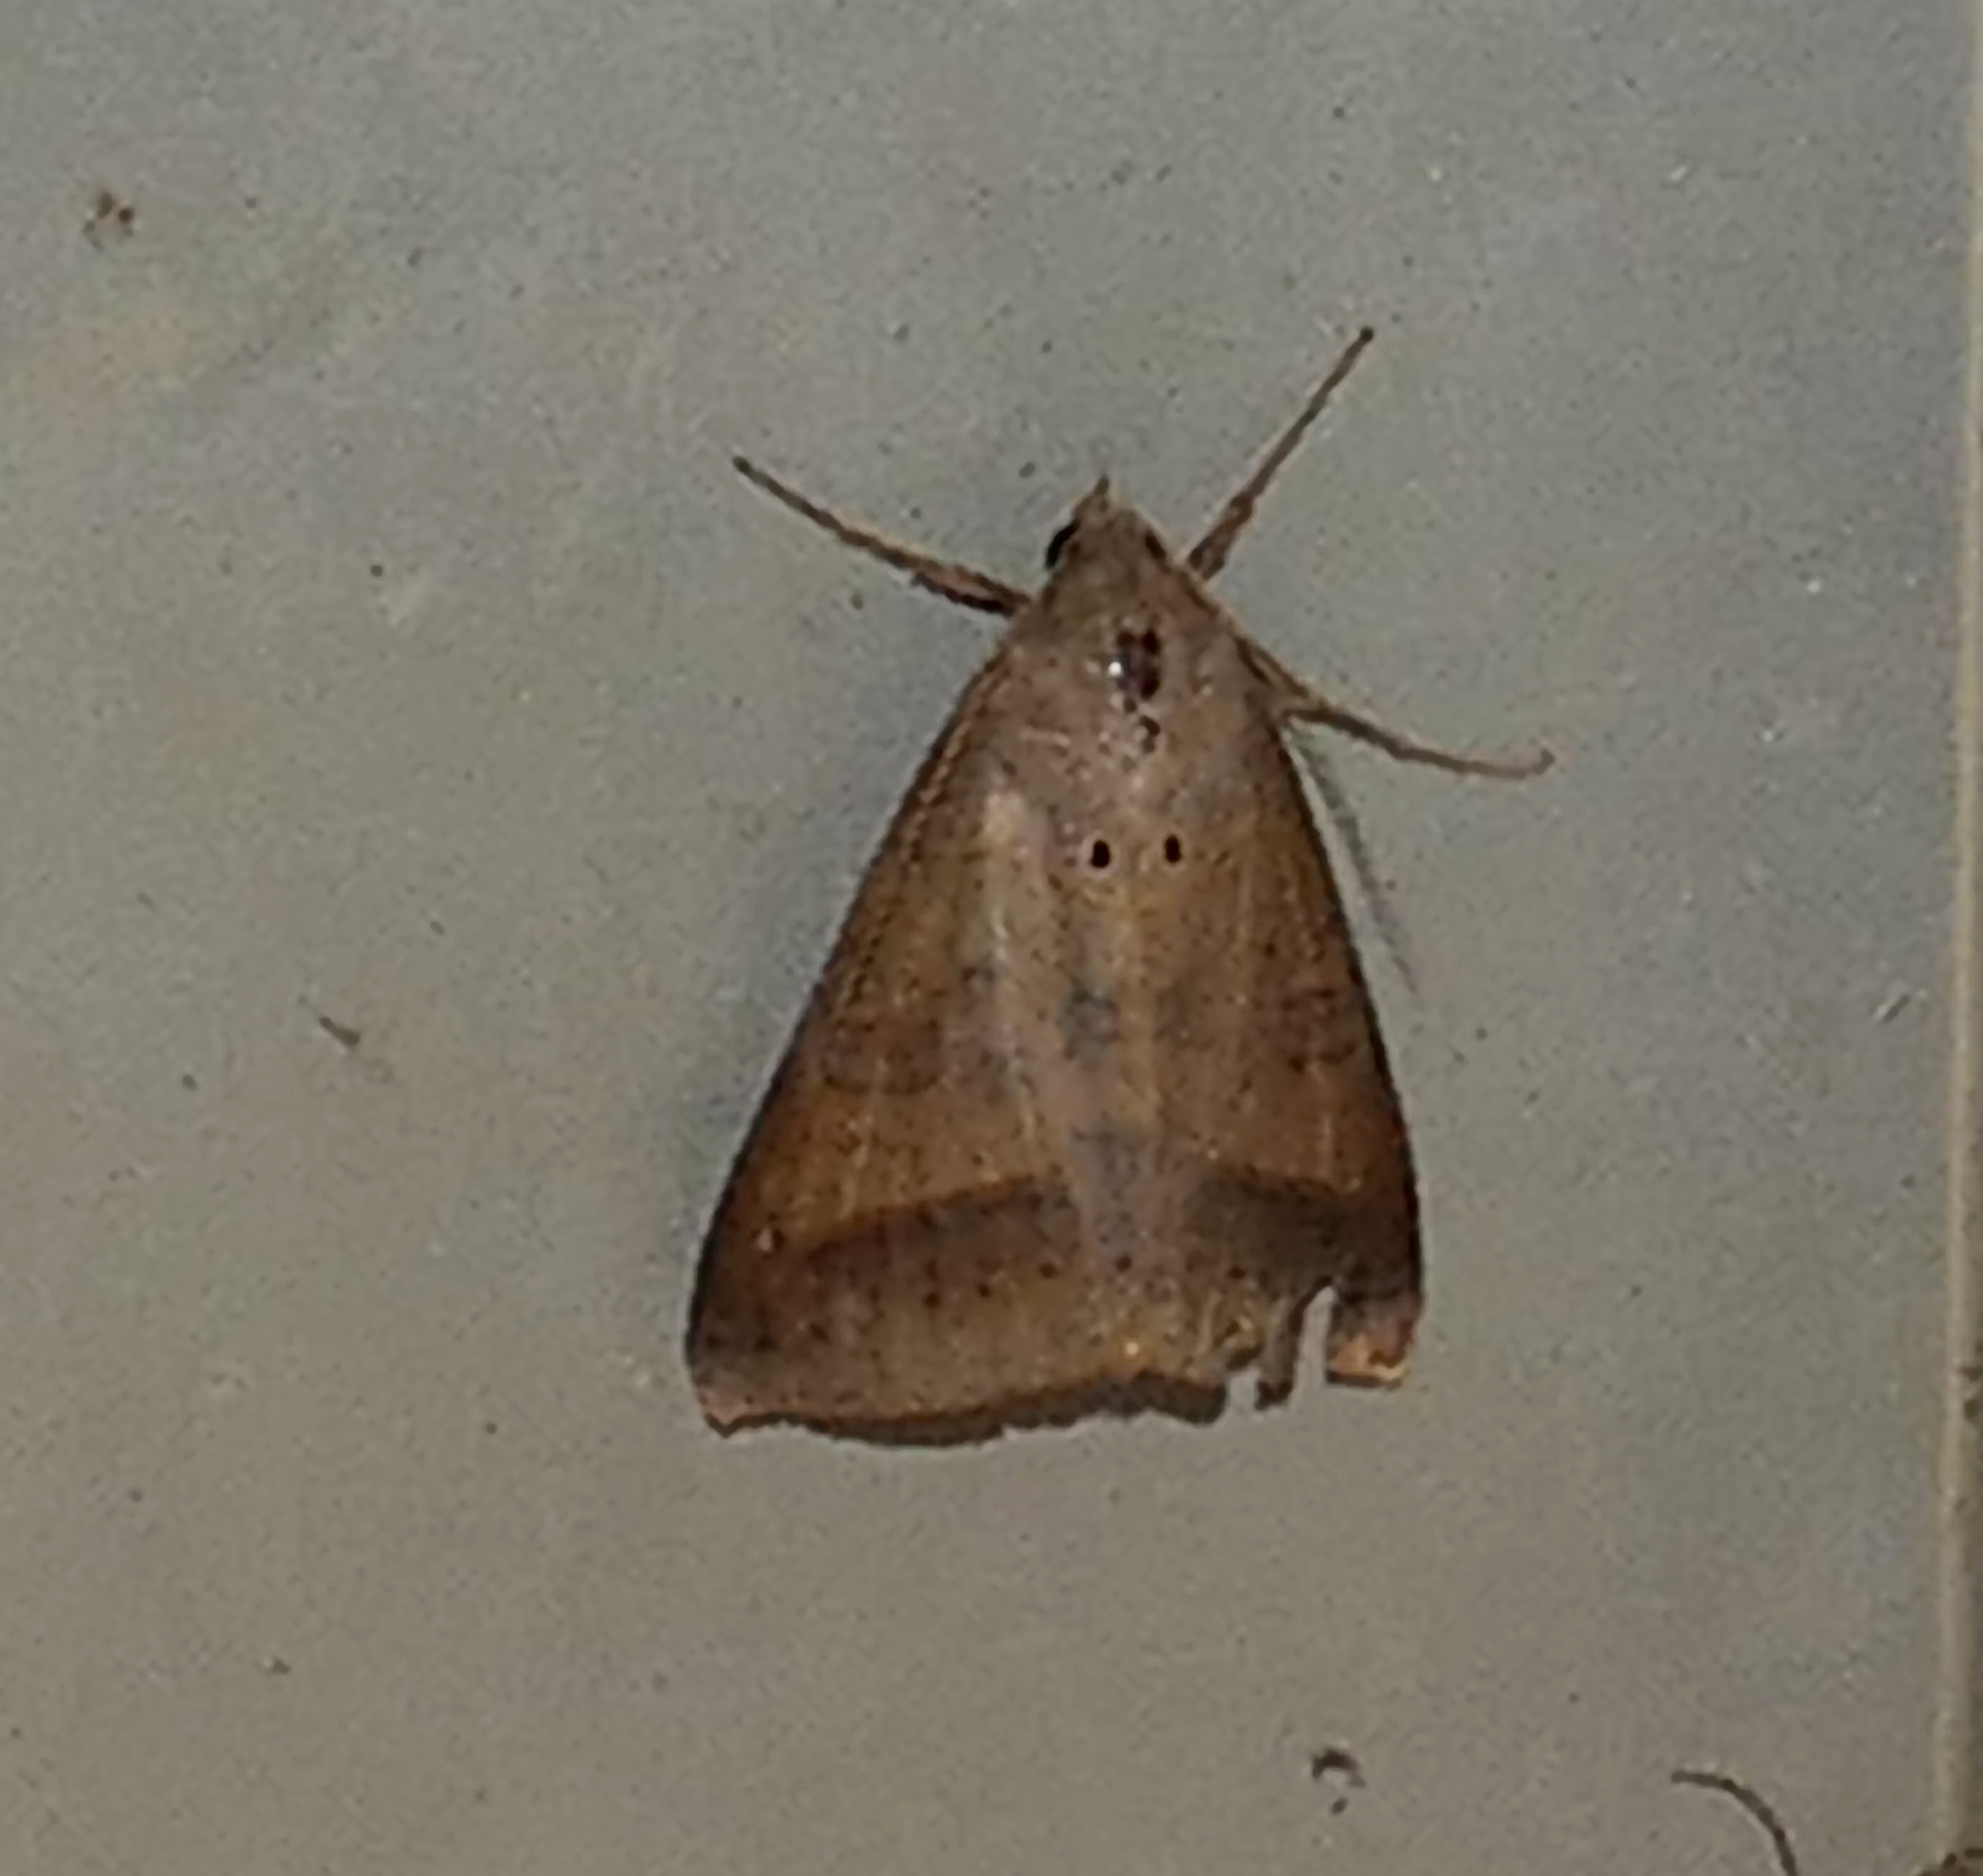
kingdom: Animalia
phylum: Arthropoda
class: Insecta
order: Lepidoptera
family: Erebidae
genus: Mocis
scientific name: Mocis marcida
